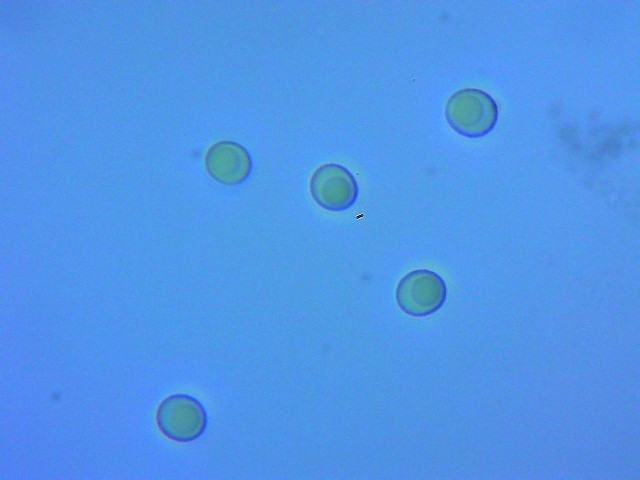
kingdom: Fungi
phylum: Basidiomycota
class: Agaricomycetes
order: Russulales
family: Hericiaceae
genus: Hericium
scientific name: Hericium coralloides
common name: Coral tooth
